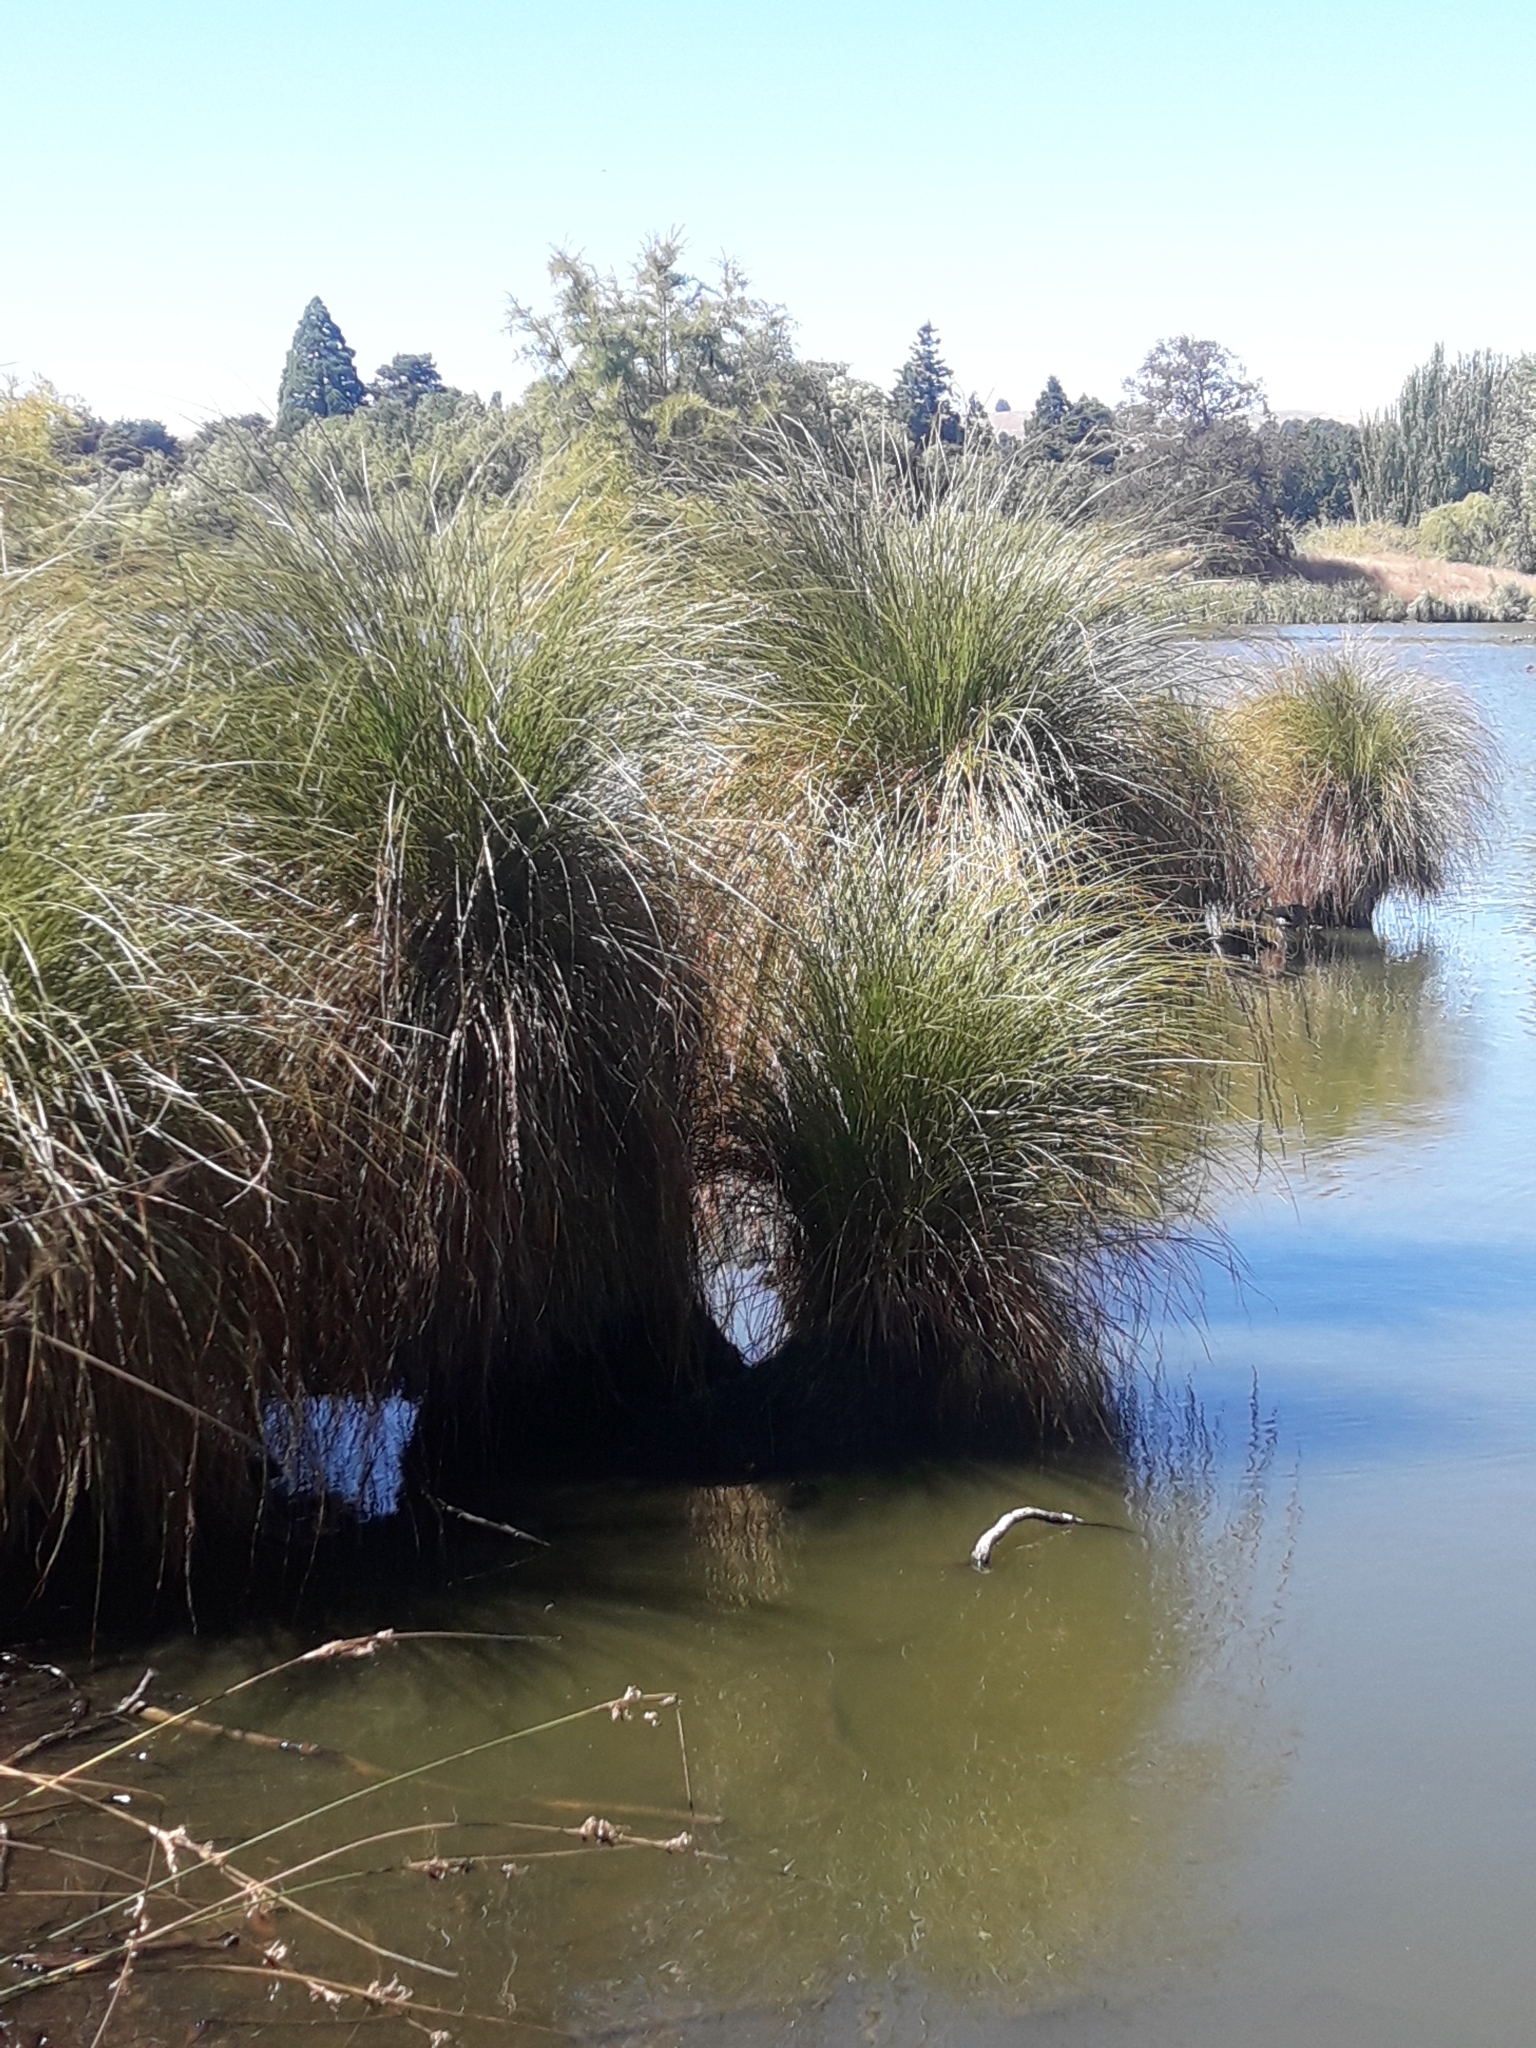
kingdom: Plantae
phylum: Tracheophyta
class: Liliopsida
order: Poales
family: Cyperaceae
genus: Carex
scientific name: Carex secta
